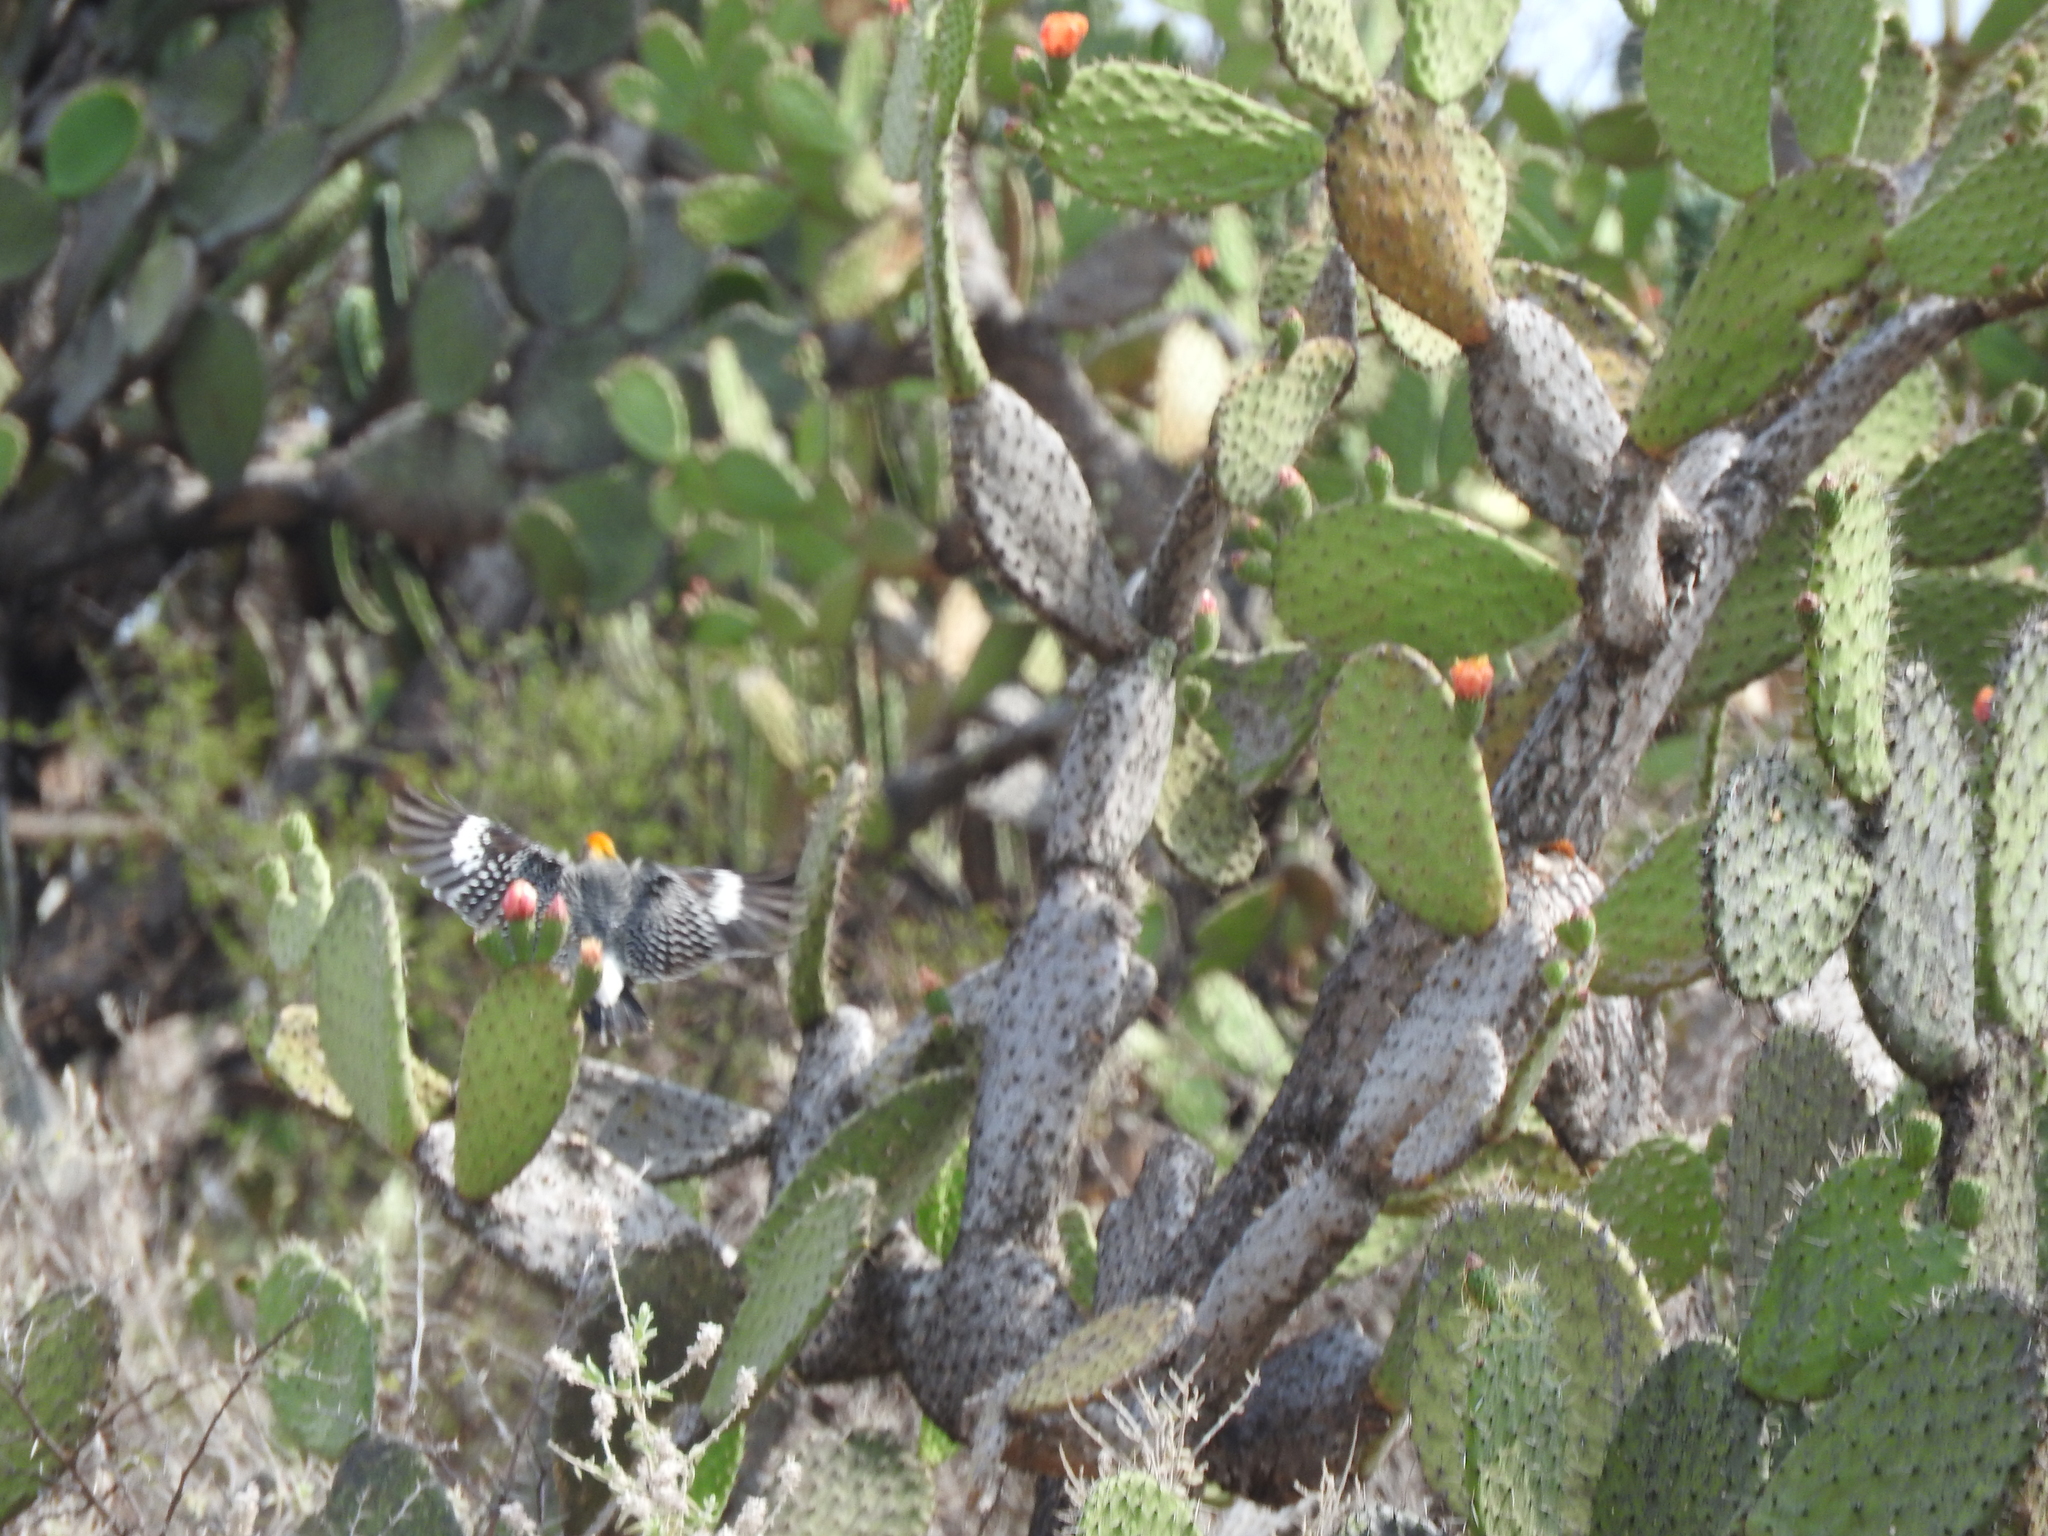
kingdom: Animalia
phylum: Chordata
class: Aves
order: Piciformes
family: Picidae
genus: Melanerpes
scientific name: Melanerpes aurifrons
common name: Golden-fronted woodpecker
